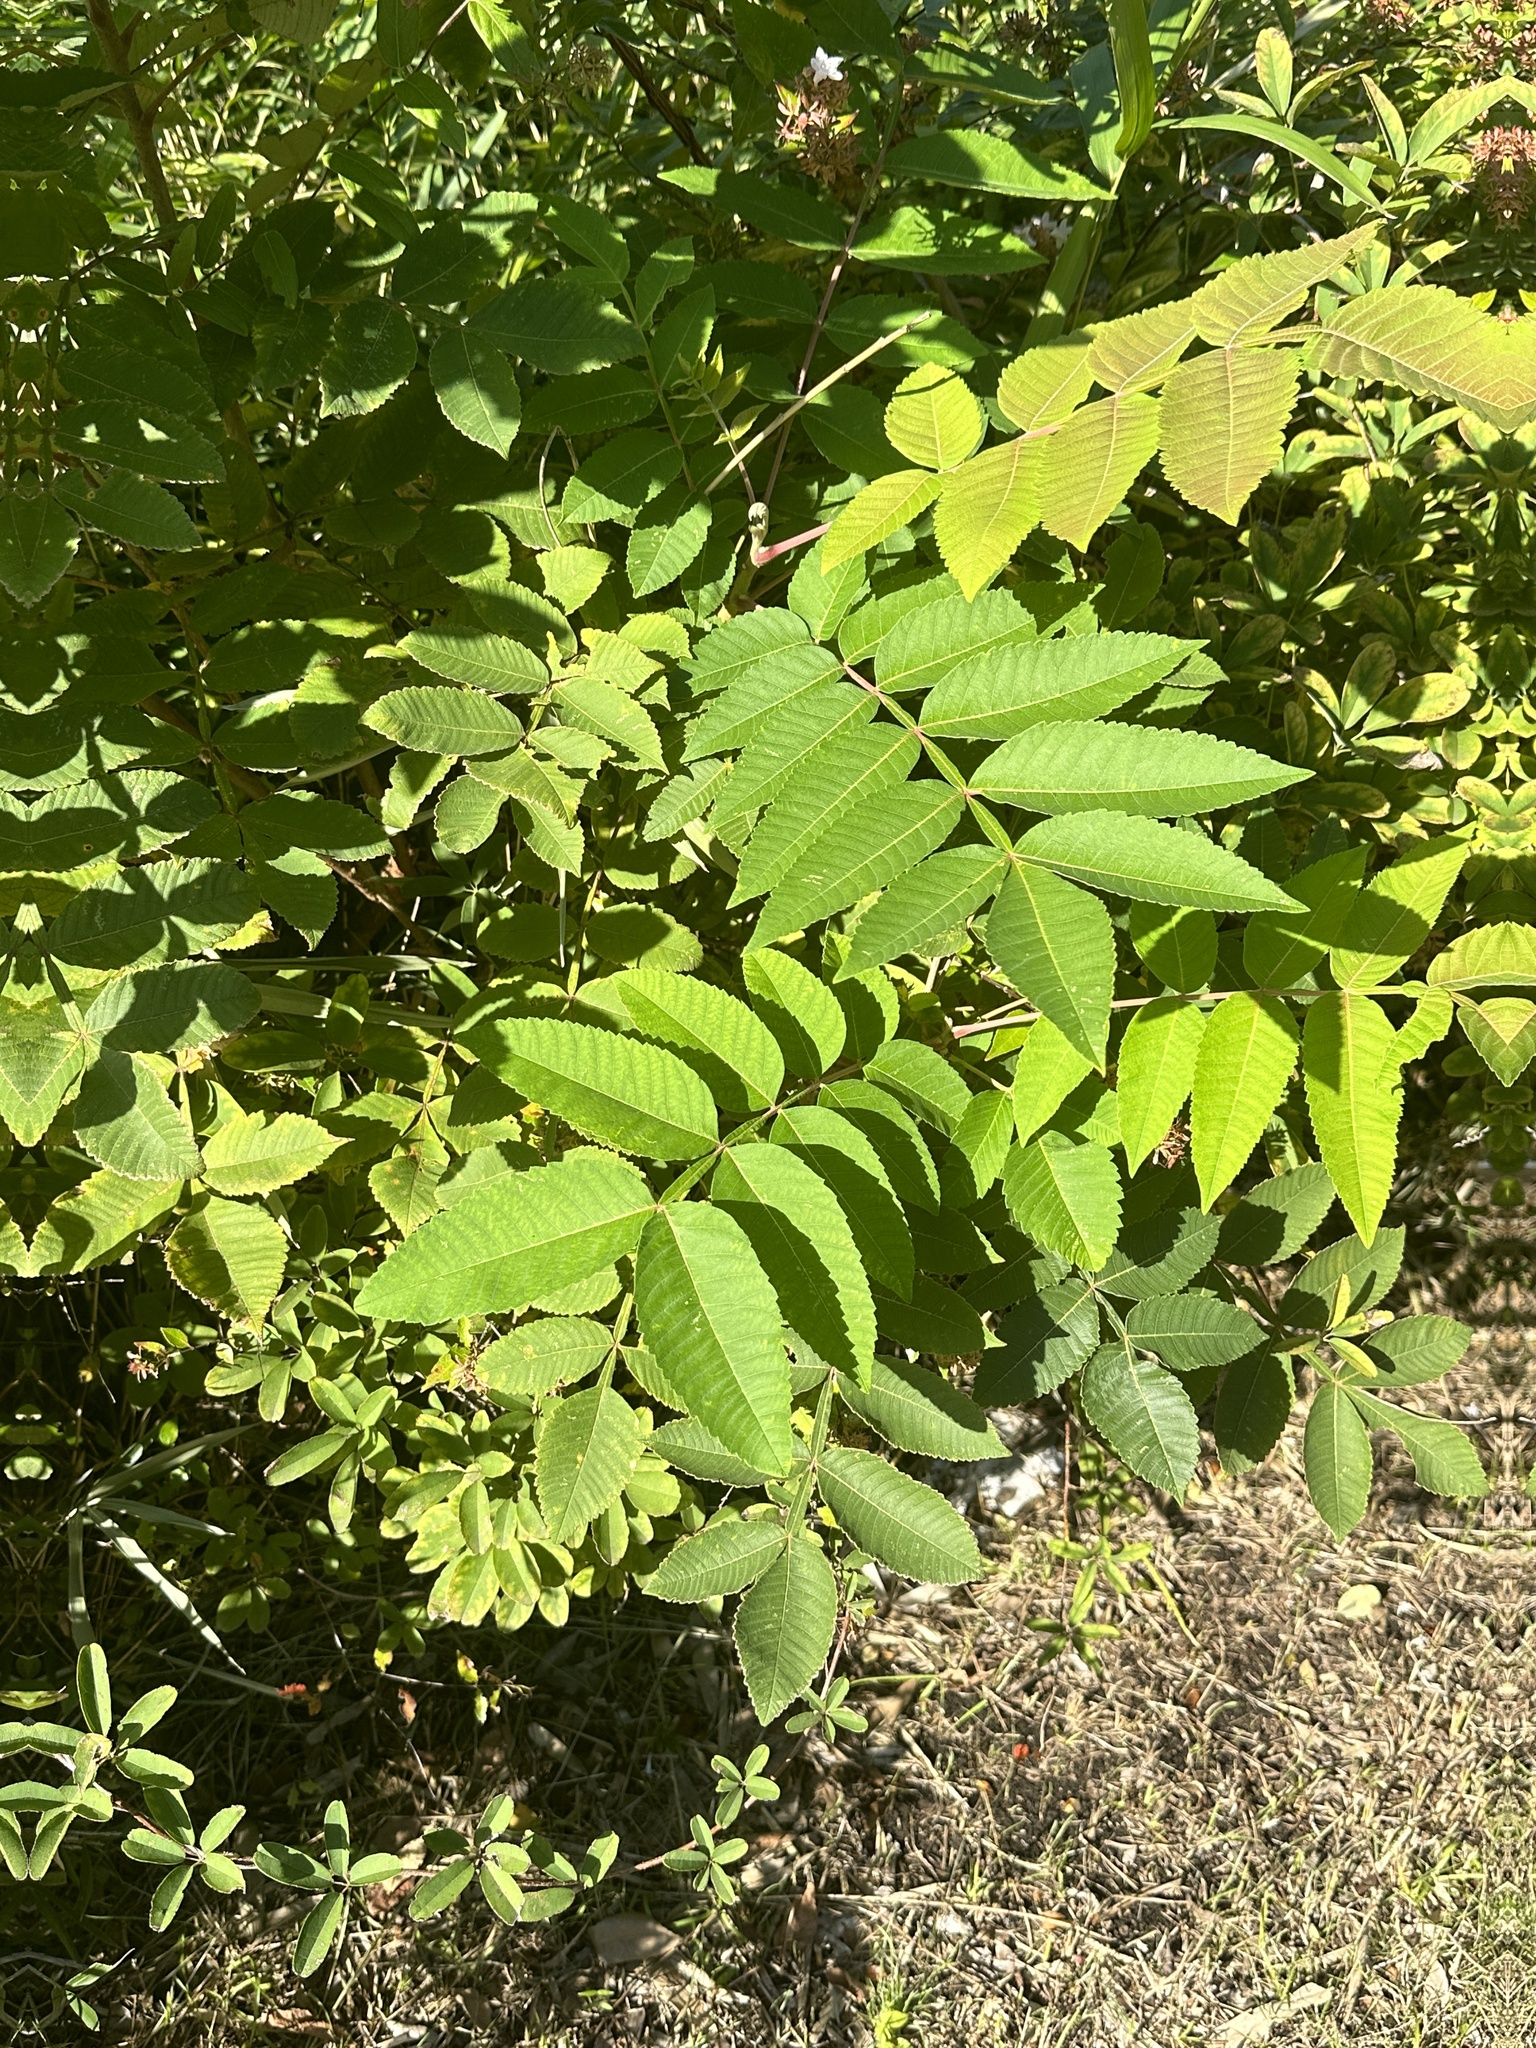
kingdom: Plantae
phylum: Tracheophyta
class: Magnoliopsida
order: Sapindales
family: Anacardiaceae
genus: Rhus
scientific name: Rhus chinensis
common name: Chinese gall
